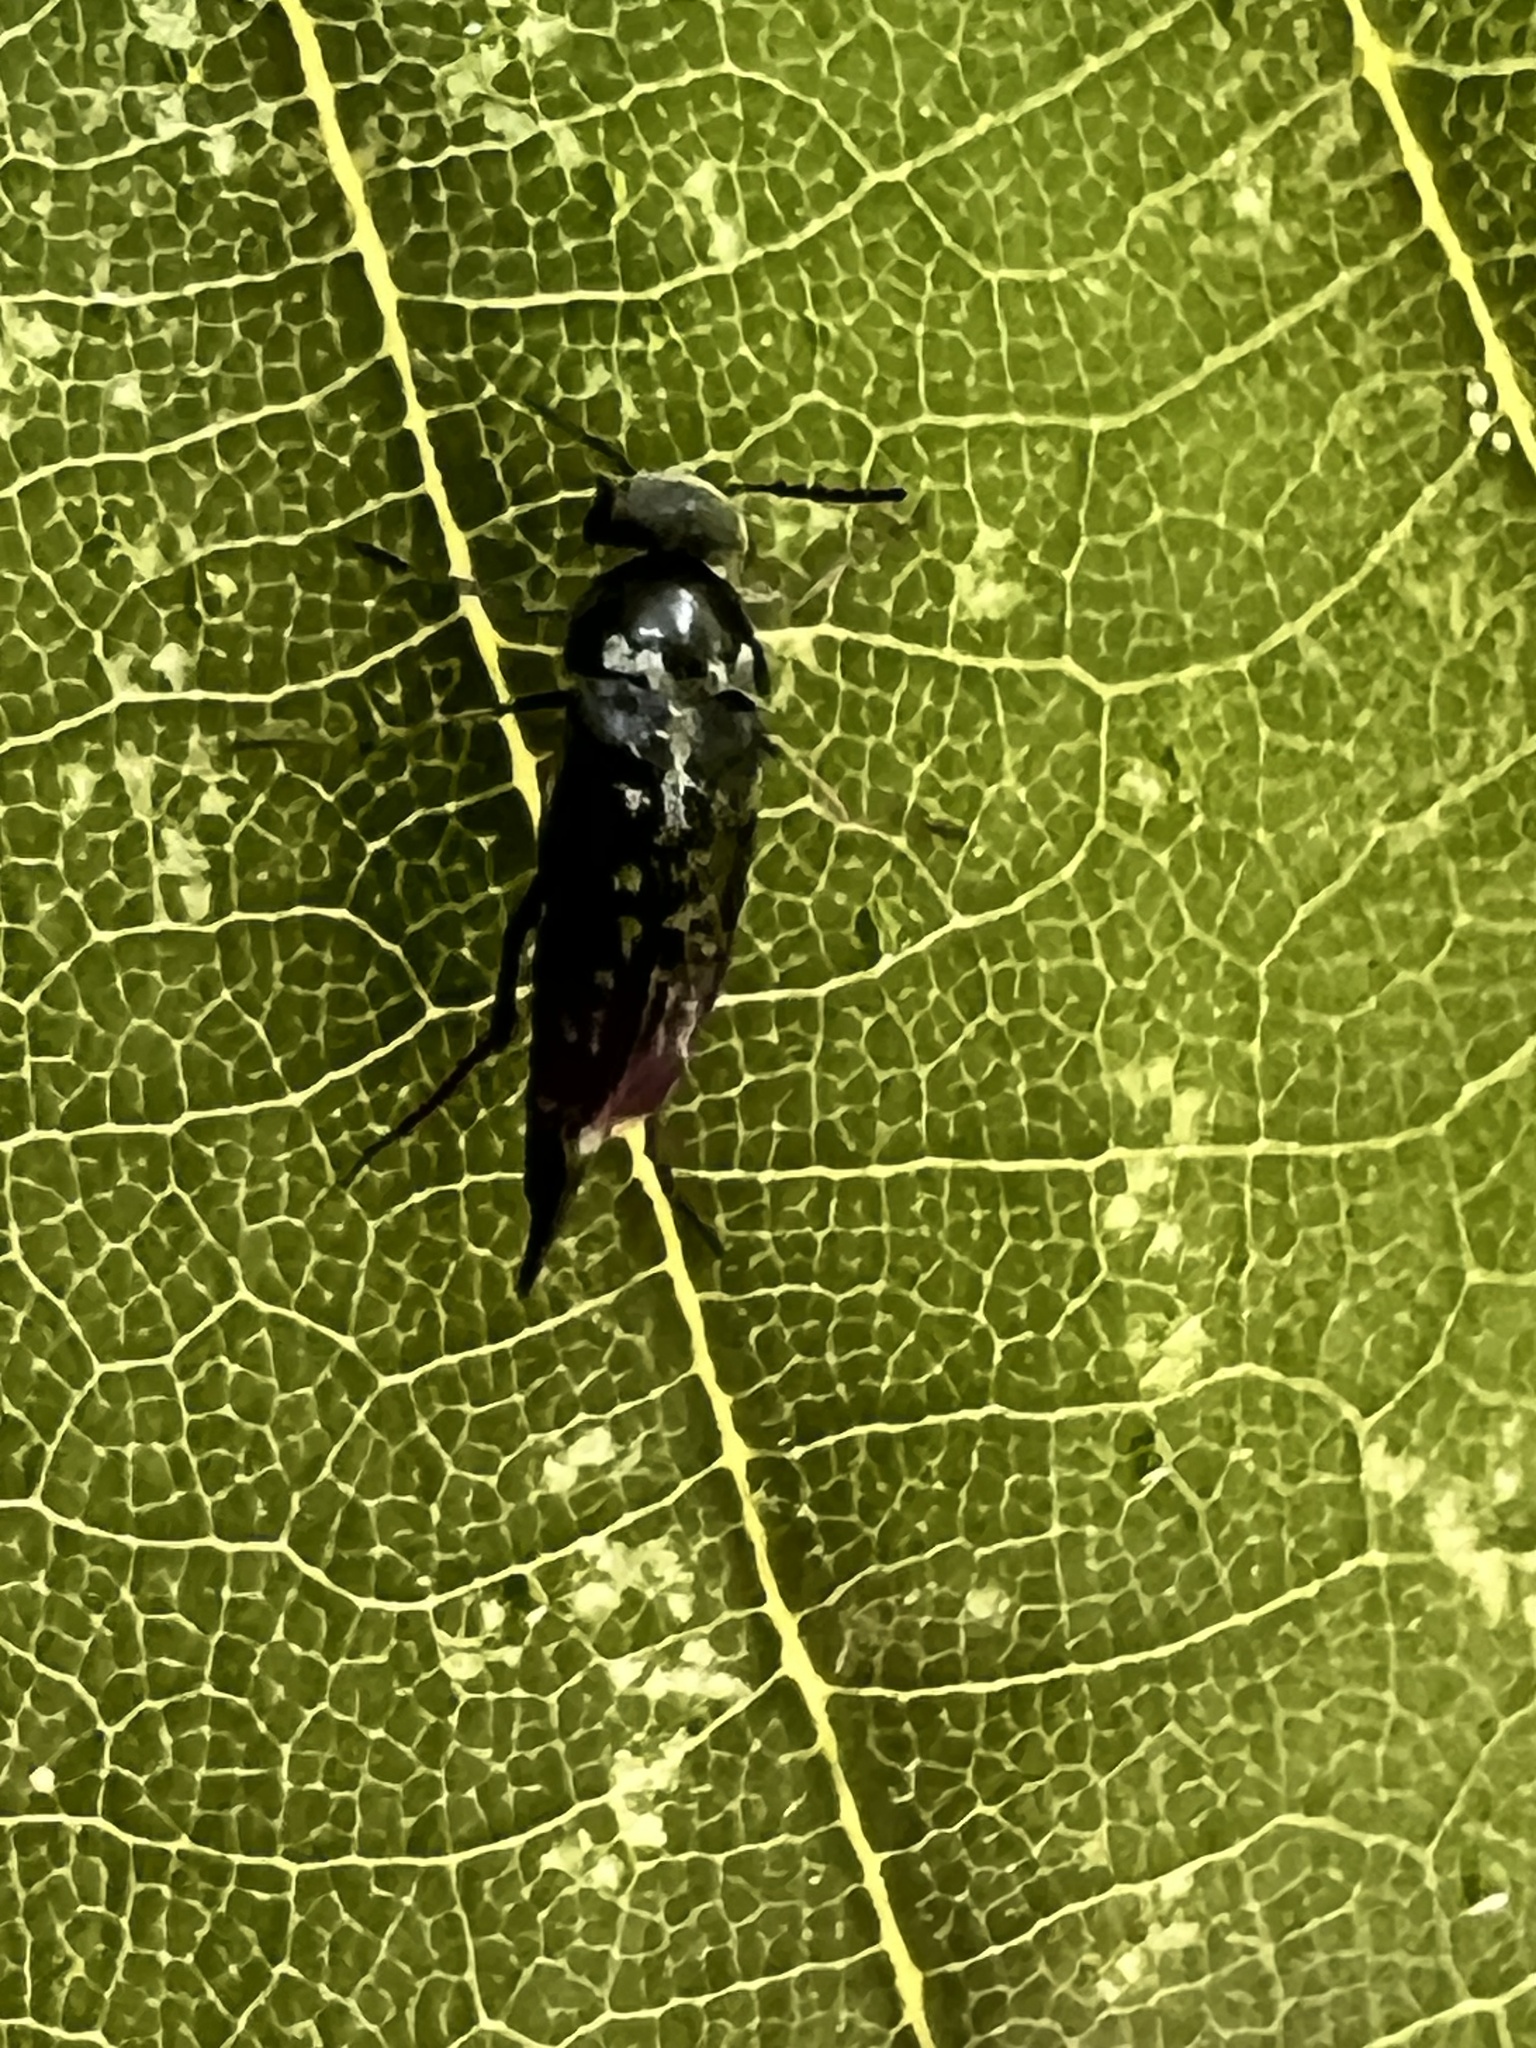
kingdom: Animalia
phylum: Arthropoda
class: Insecta
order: Coleoptera
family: Mordellidae
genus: Mordella
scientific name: Mordella marginata
